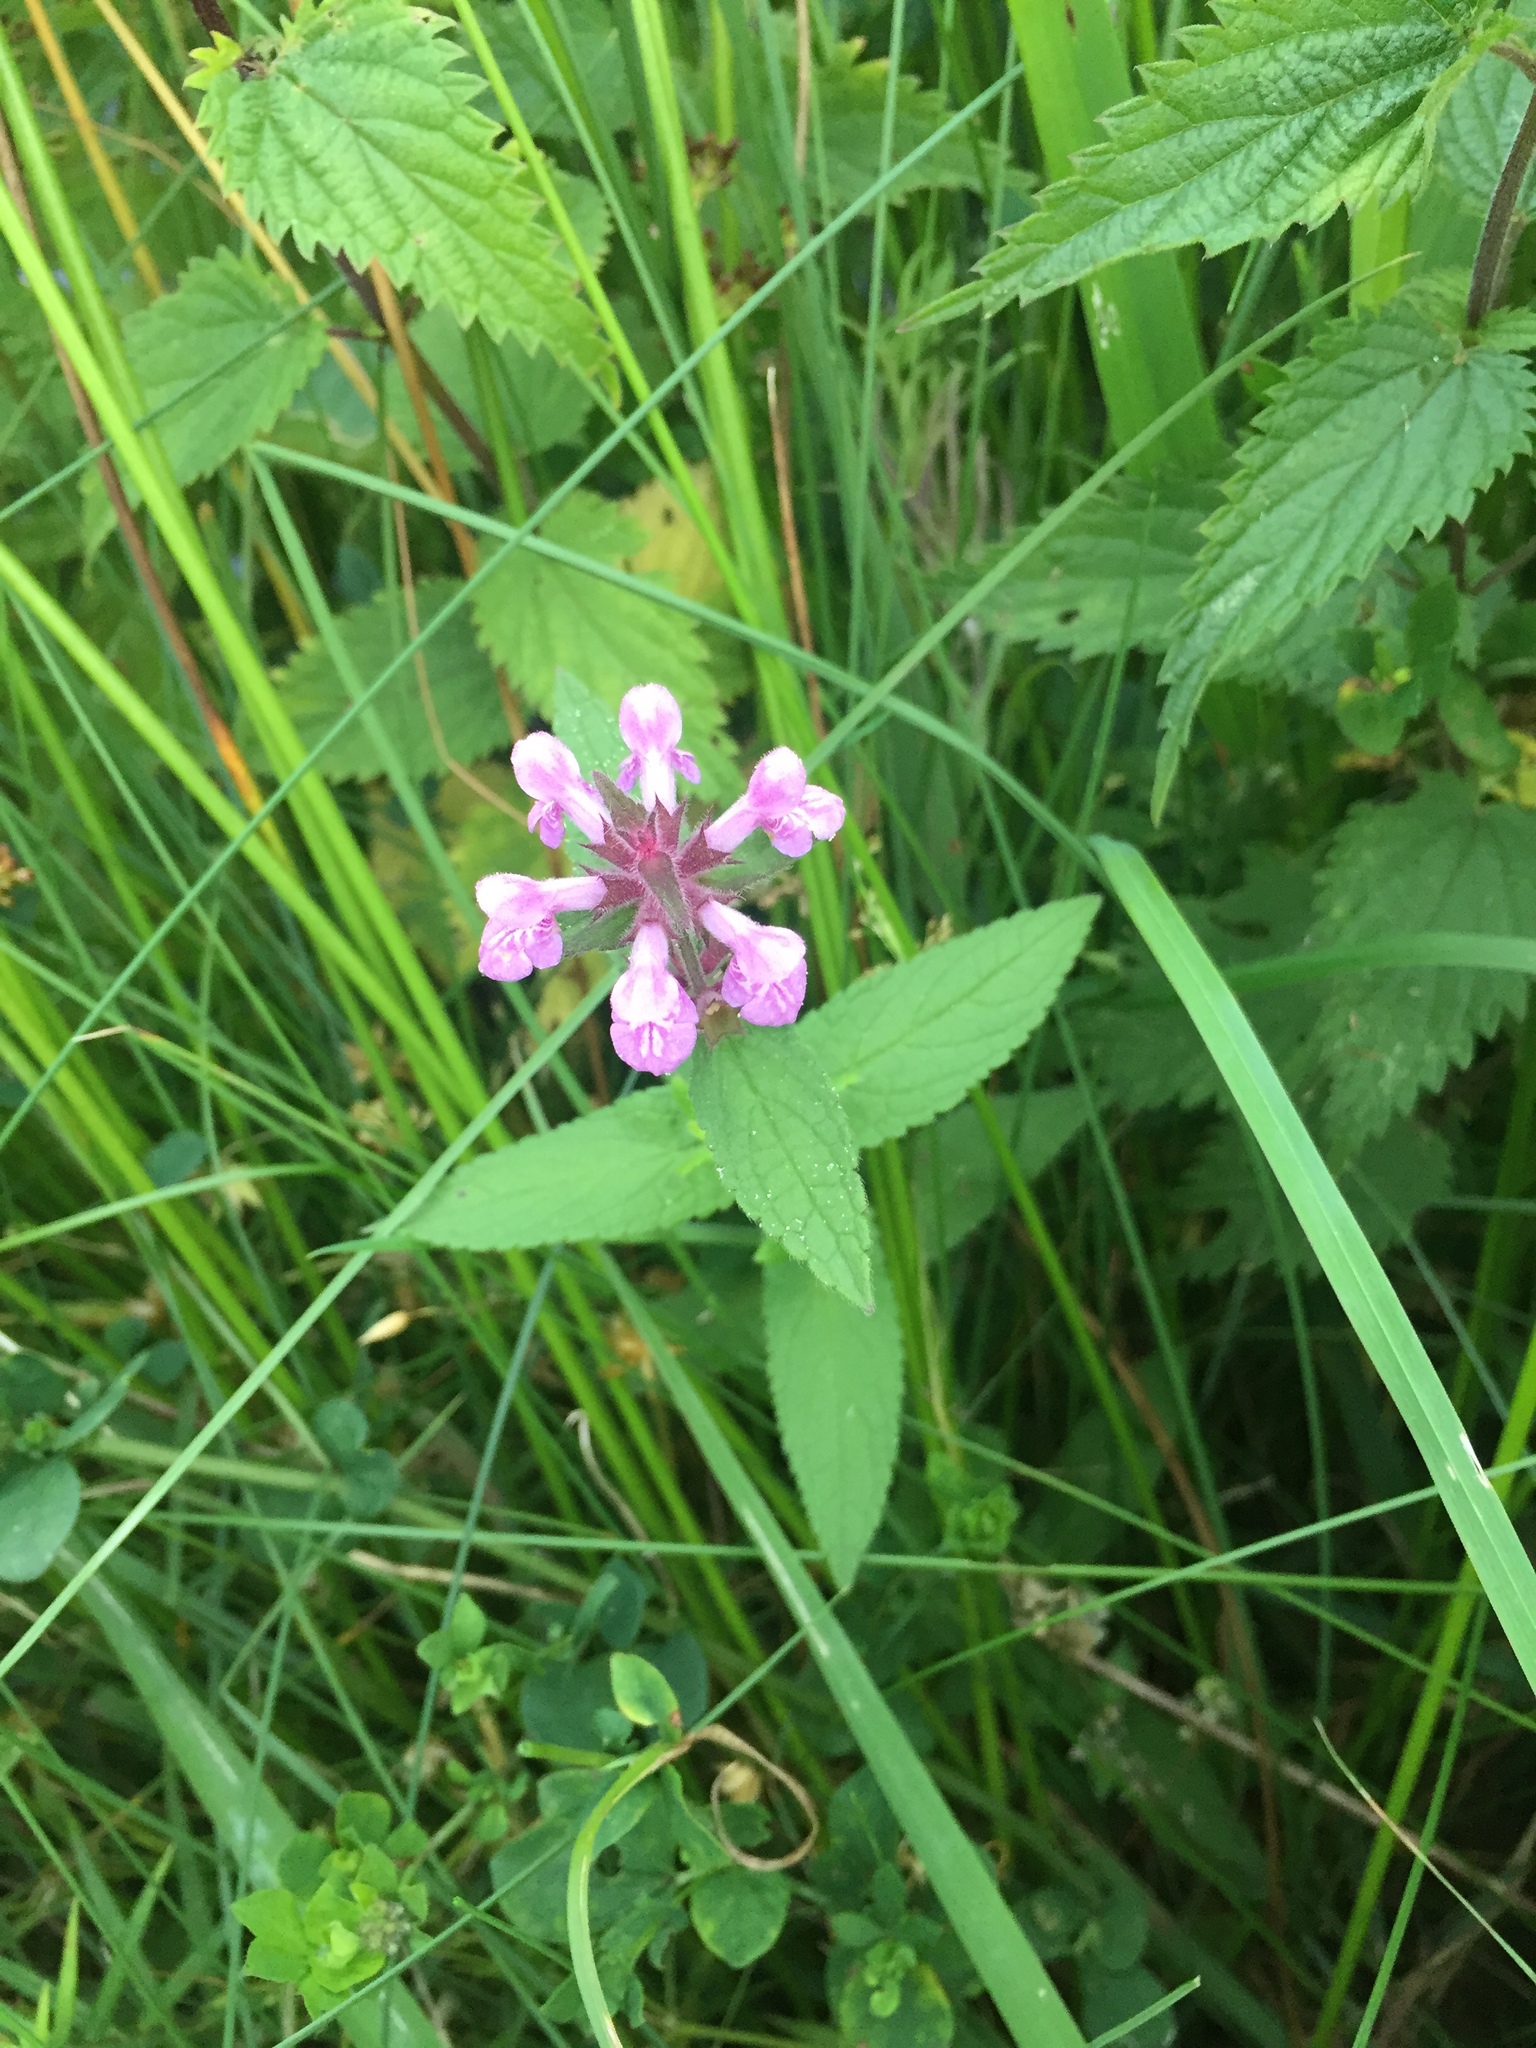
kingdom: Plantae
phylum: Tracheophyta
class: Magnoliopsida
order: Lamiales
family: Lamiaceae
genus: Stachys
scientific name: Stachys palustris
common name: Marsh woundwort
